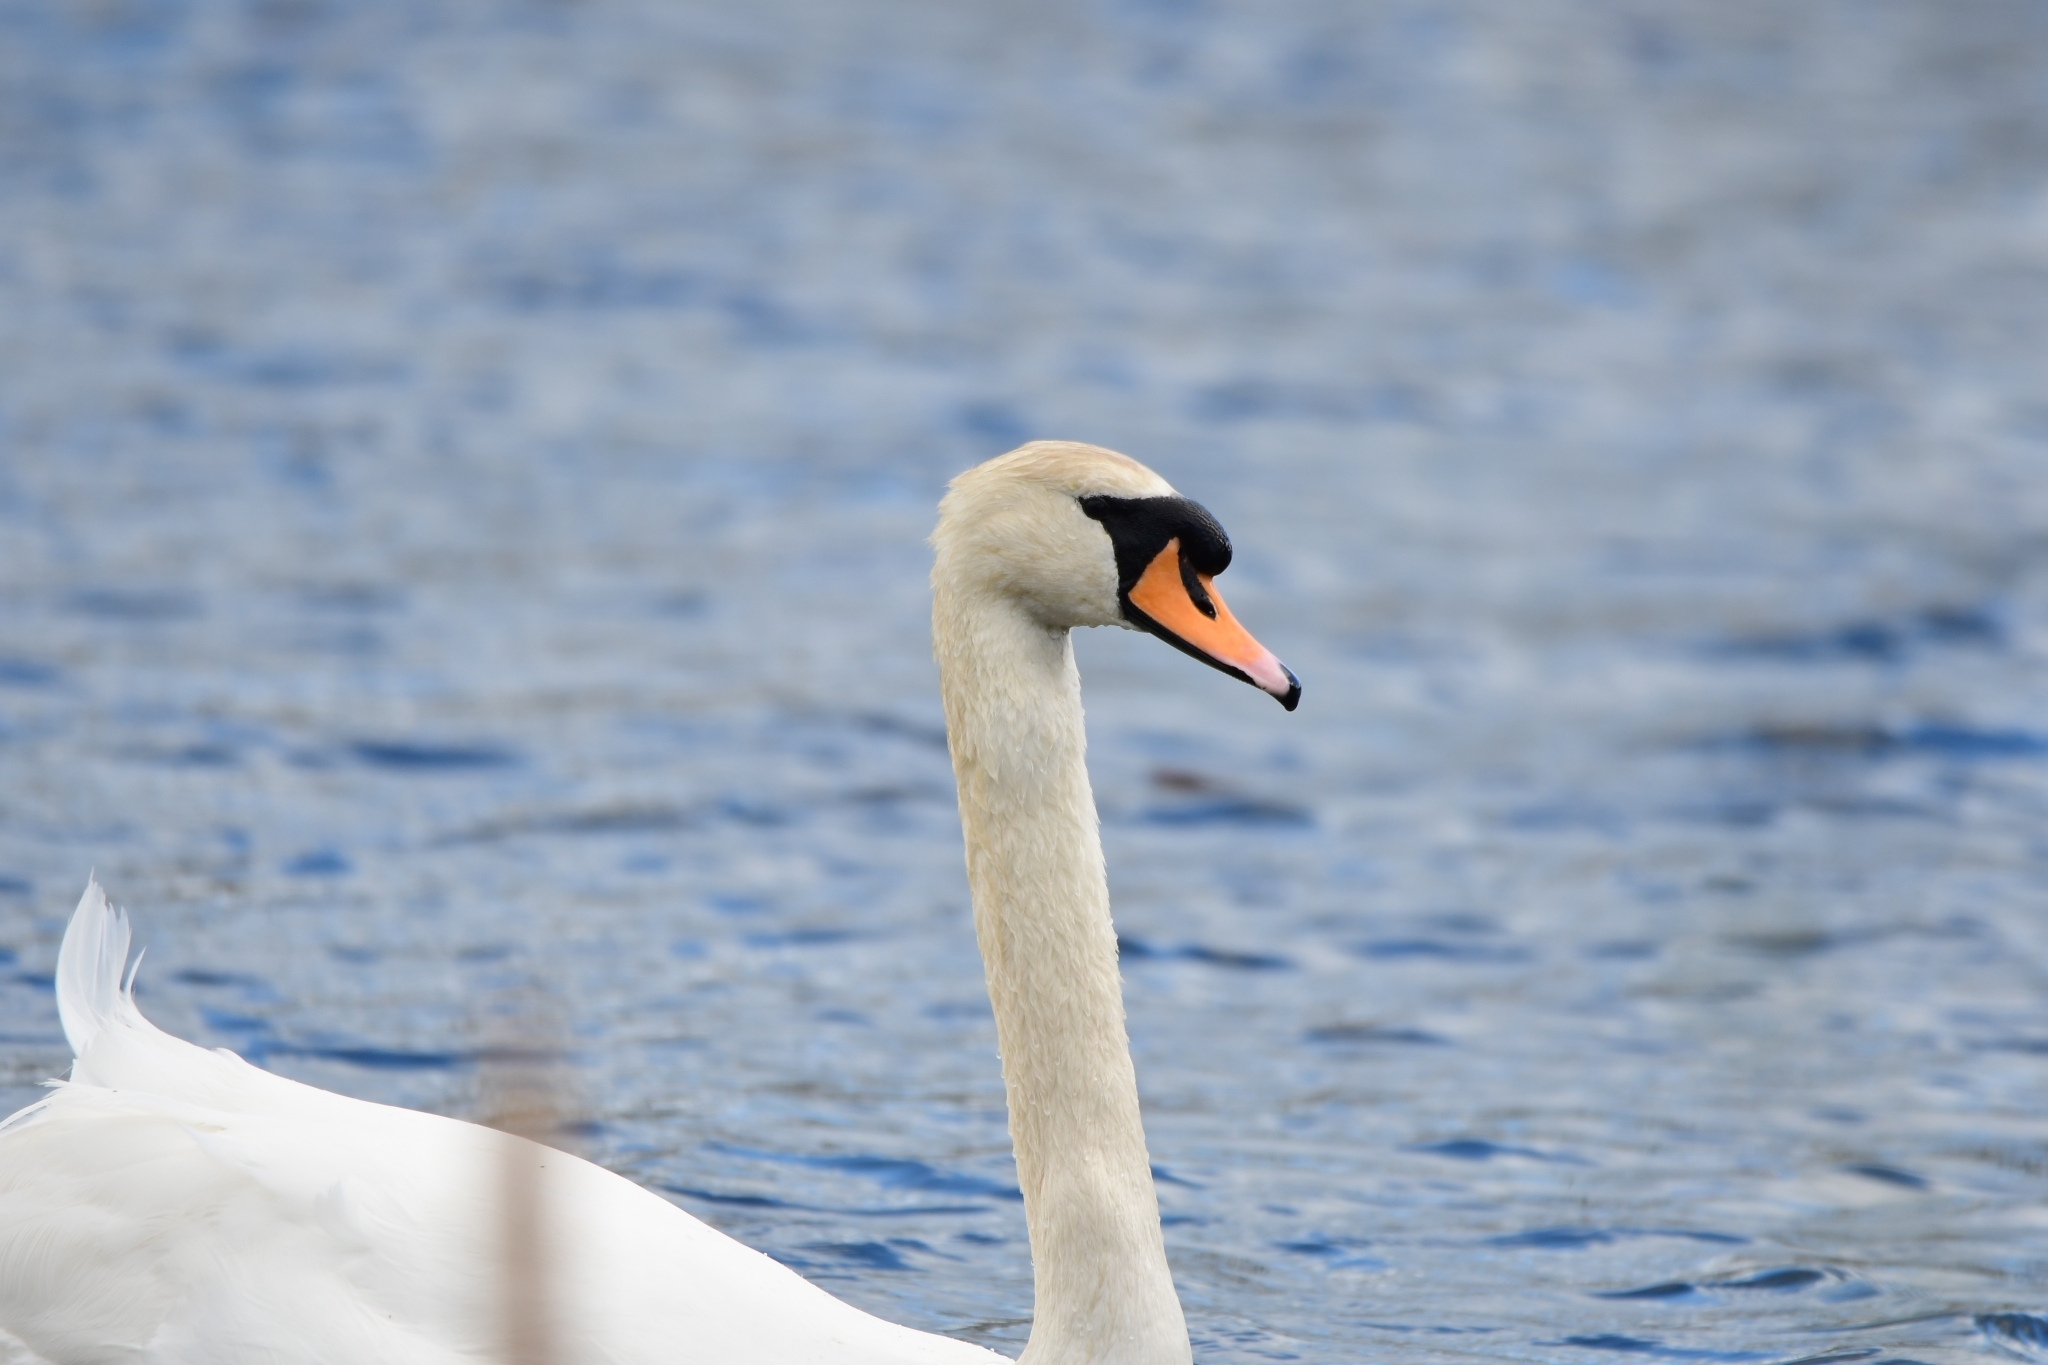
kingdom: Animalia
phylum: Chordata
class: Aves
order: Anseriformes
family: Anatidae
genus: Cygnus
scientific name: Cygnus olor
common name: Mute swan
